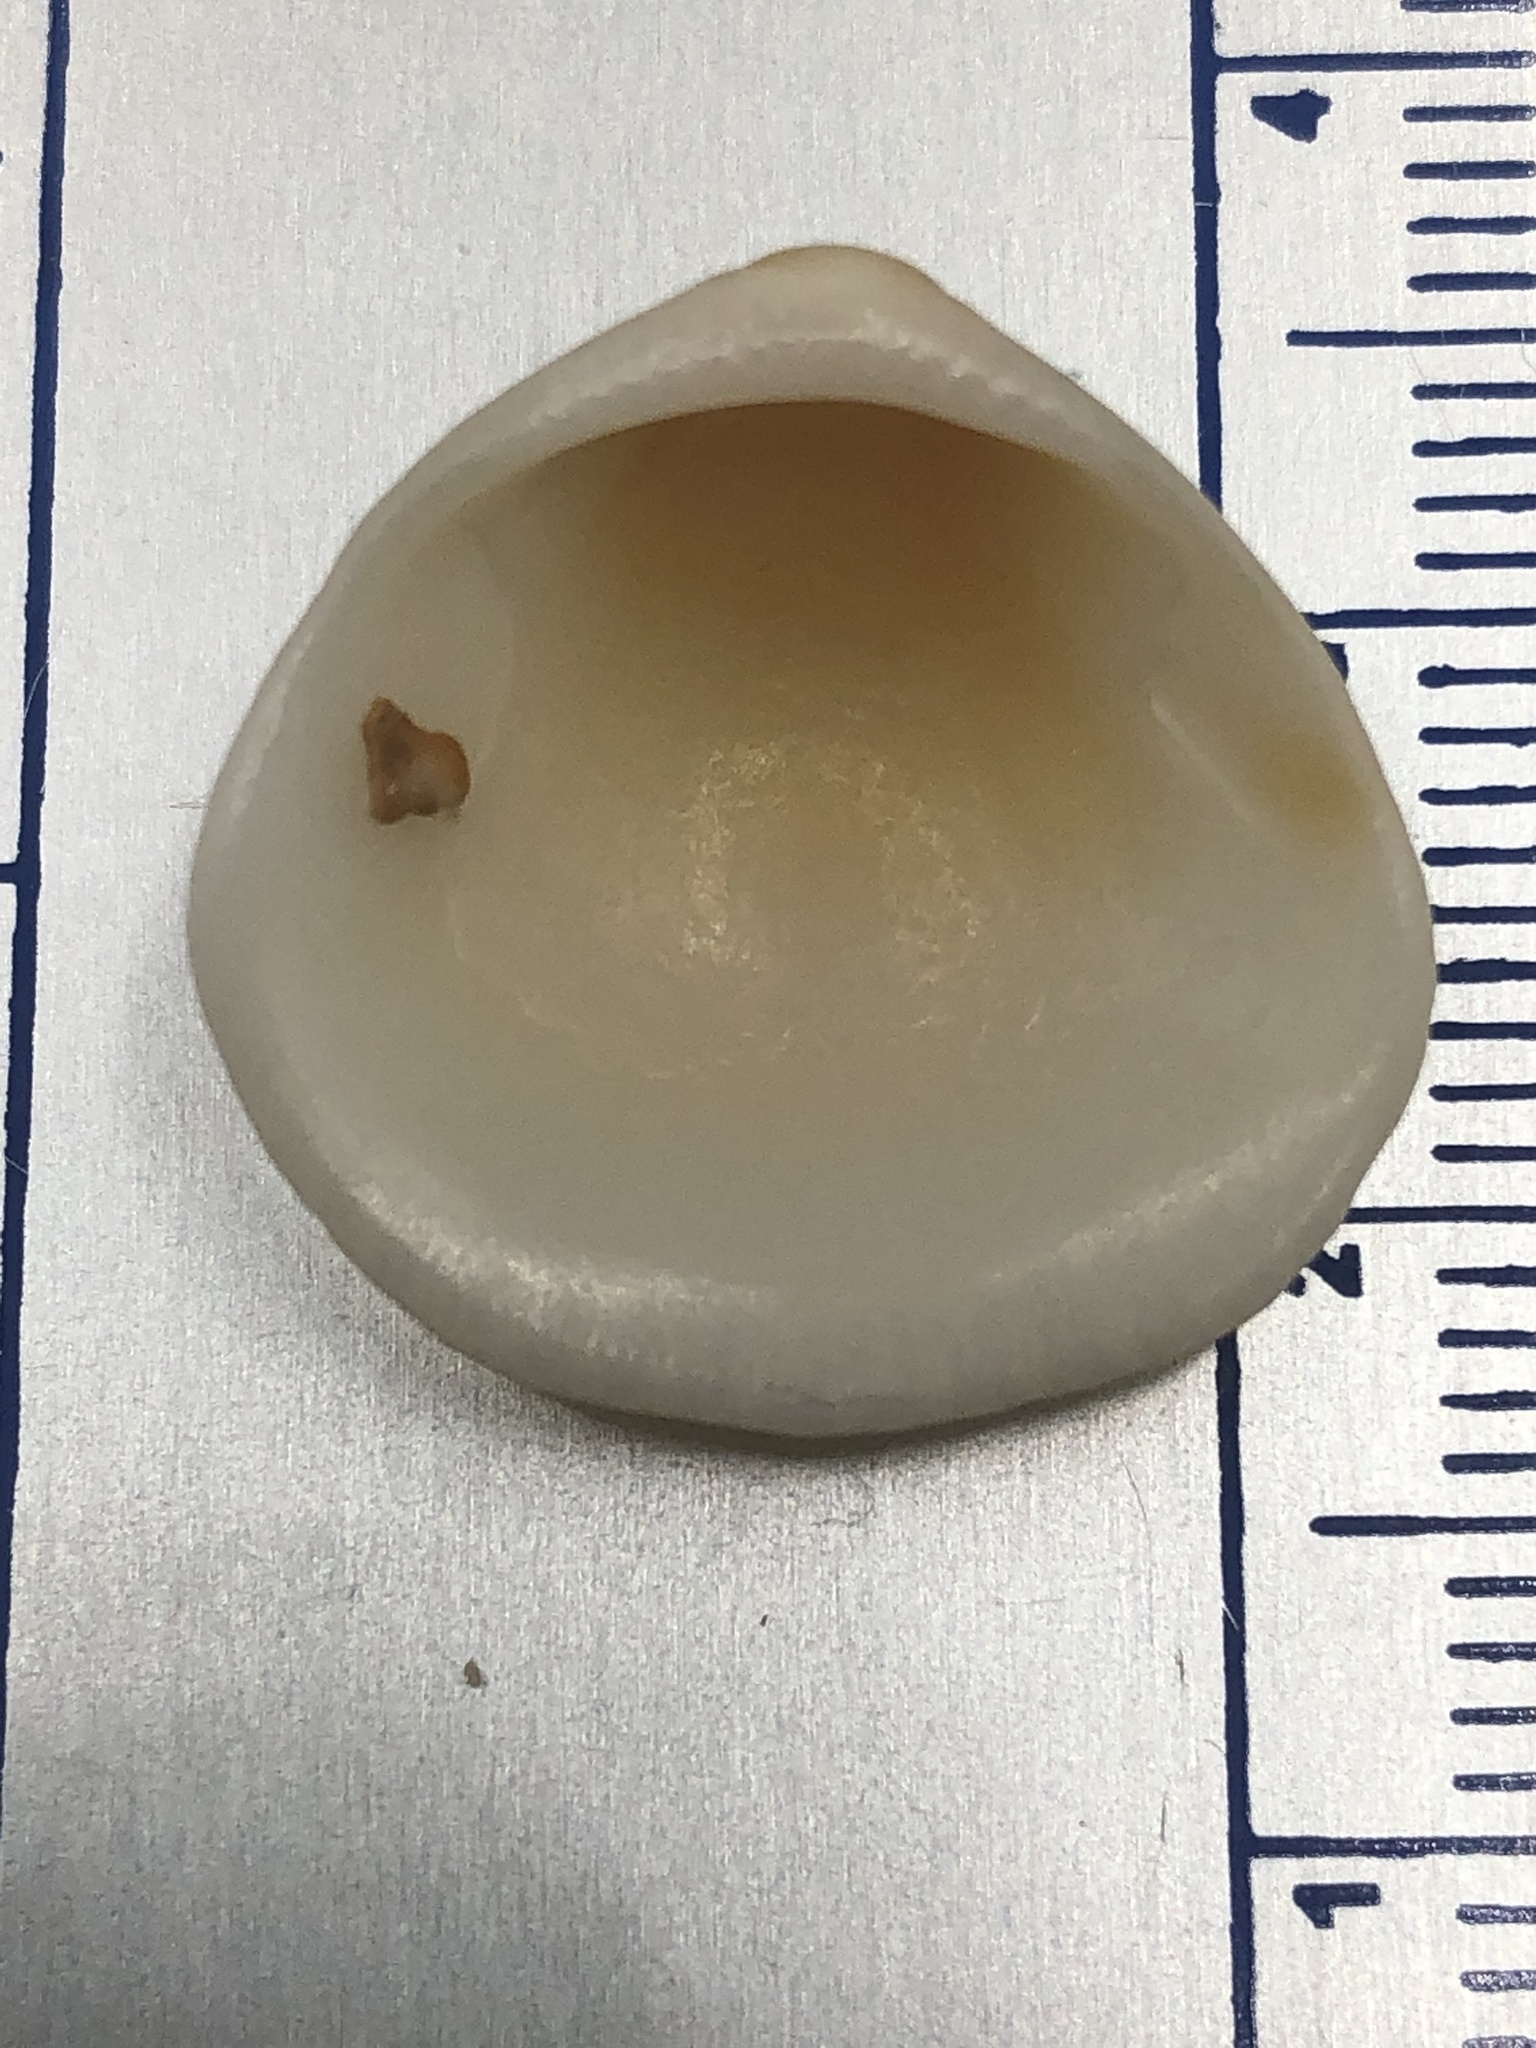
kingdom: Animalia
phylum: Mollusca
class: Bivalvia
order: Arcida
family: Glycymerididae
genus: Glycymeris
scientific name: Glycymeris spectralis
